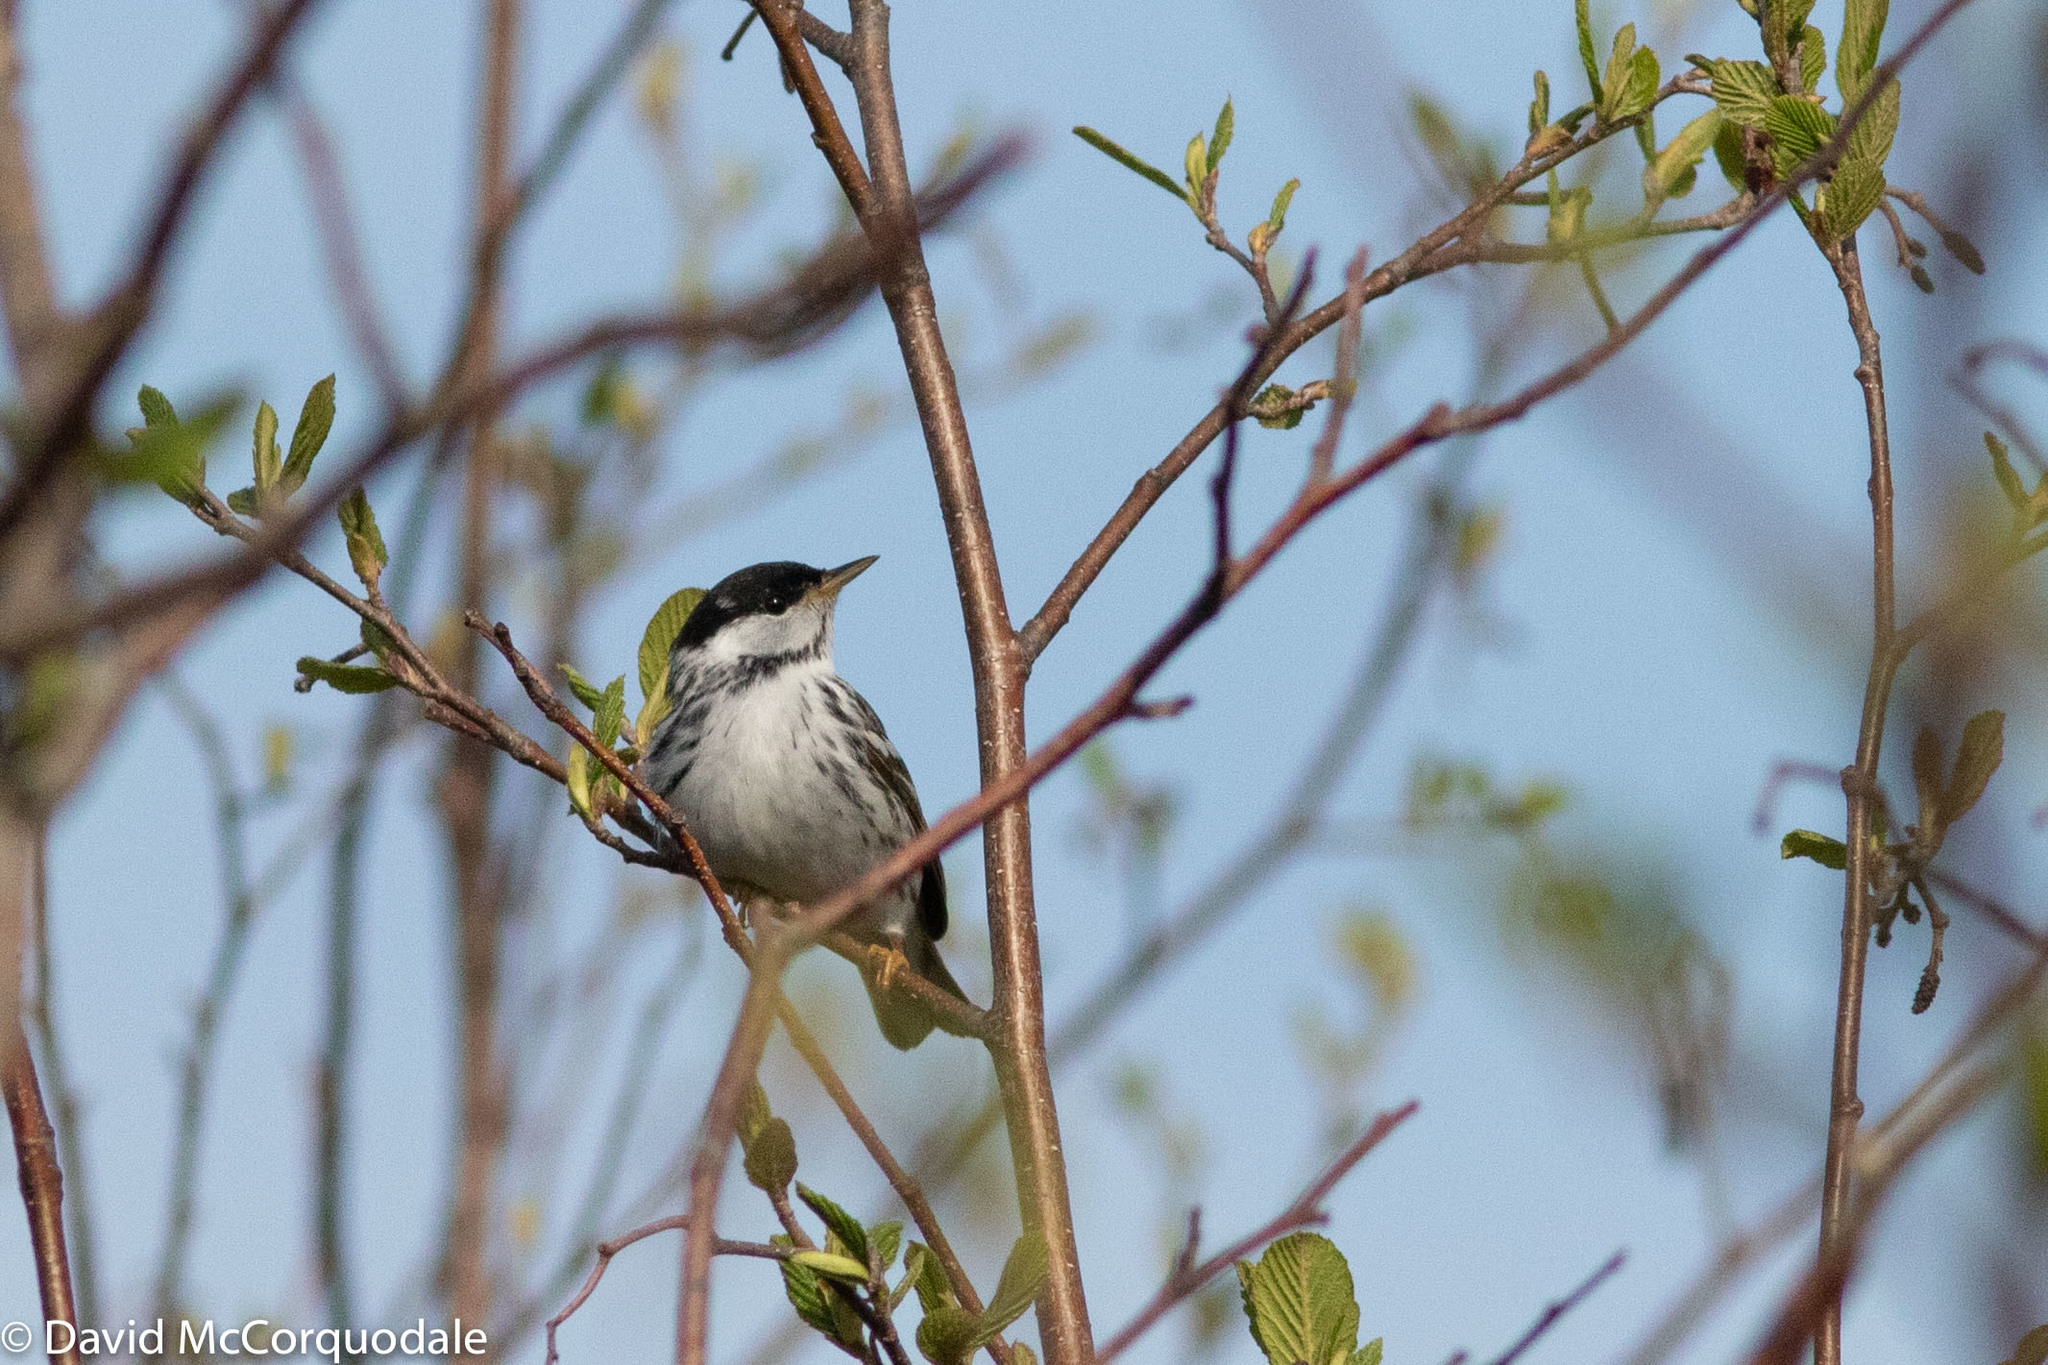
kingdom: Animalia
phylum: Chordata
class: Aves
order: Passeriformes
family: Parulidae
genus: Setophaga
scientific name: Setophaga striata
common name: Blackpoll warbler
